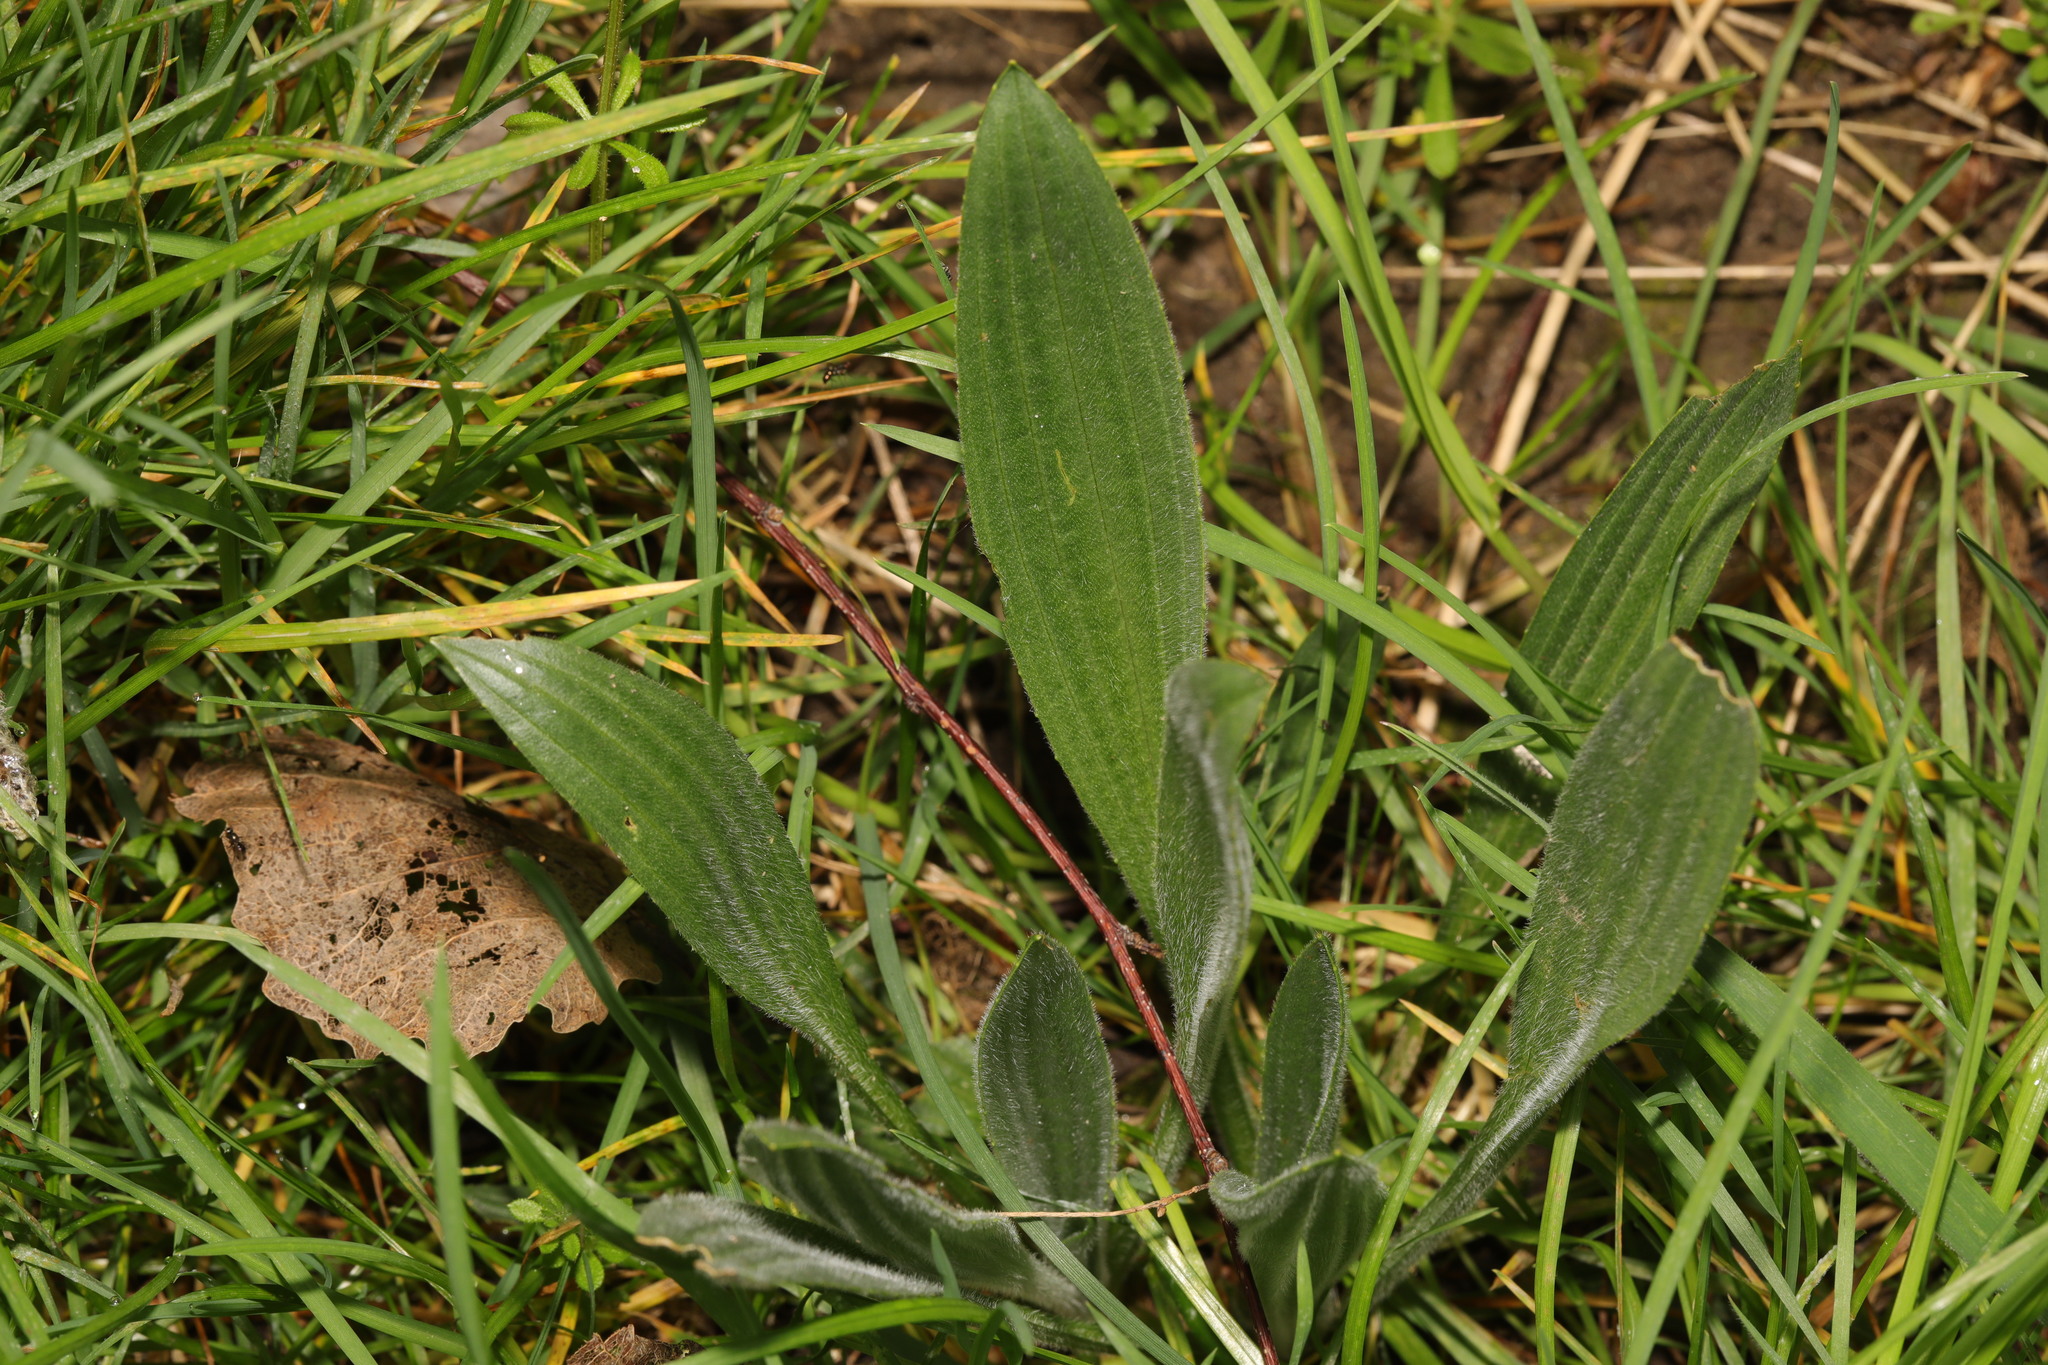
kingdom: Plantae
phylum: Tracheophyta
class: Magnoliopsida
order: Lamiales
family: Plantaginaceae
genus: Plantago
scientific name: Plantago lanceolata
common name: Ribwort plantain
